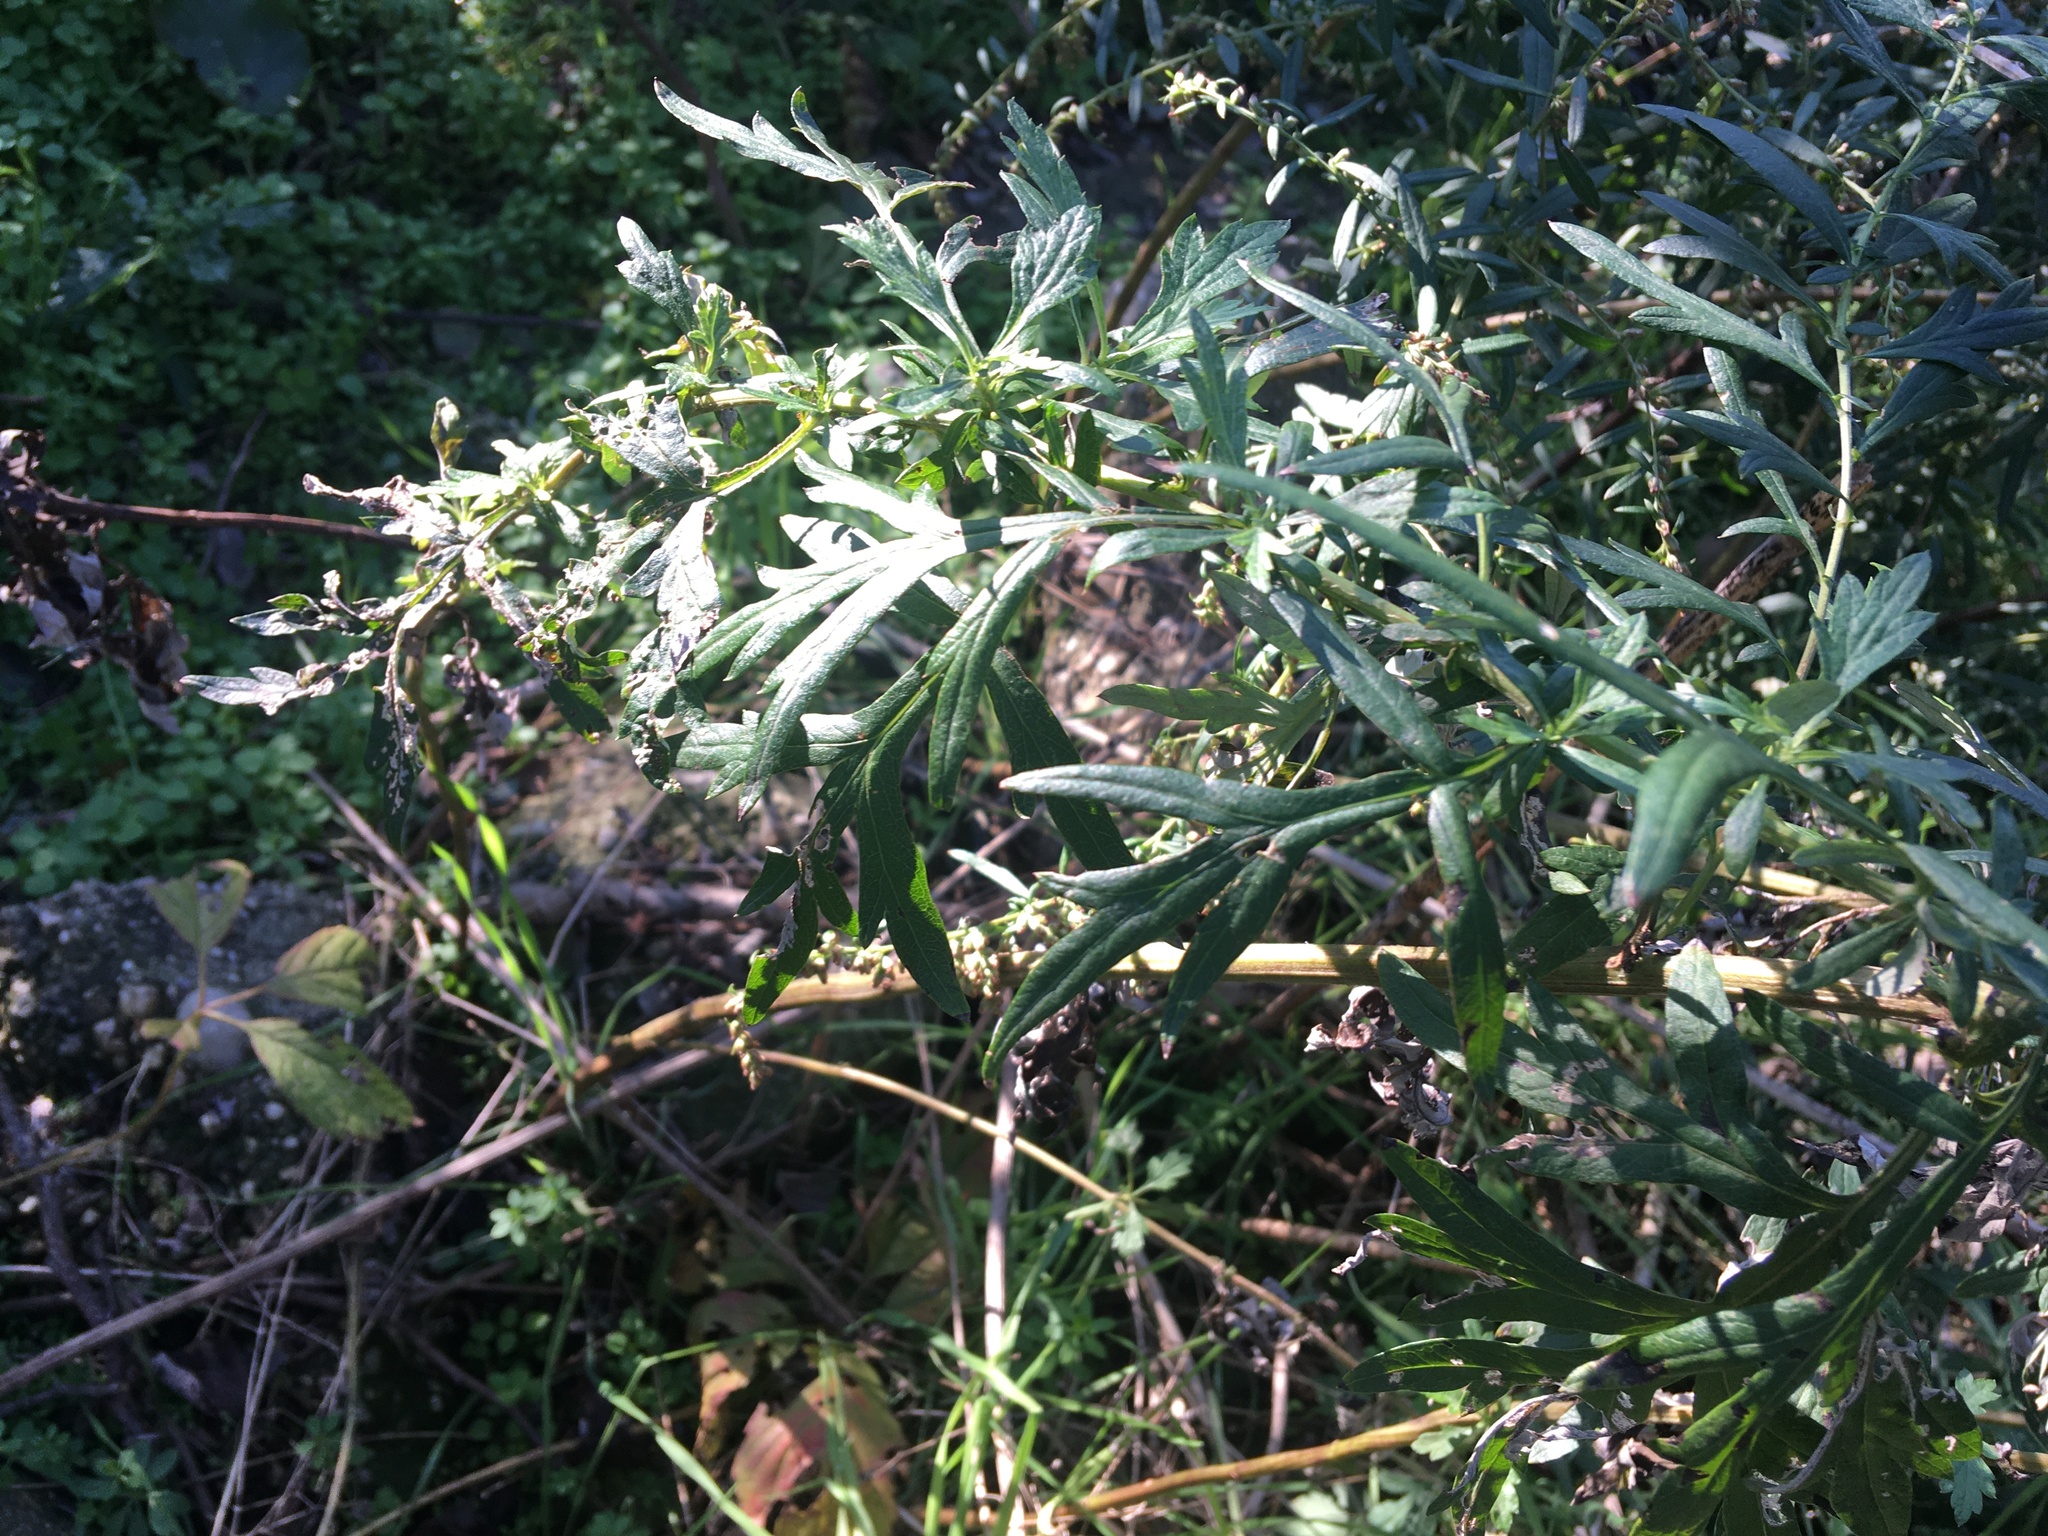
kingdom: Plantae
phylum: Tracheophyta
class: Magnoliopsida
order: Asterales
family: Asteraceae
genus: Artemisia
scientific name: Artemisia vulgaris
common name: Mugwort
